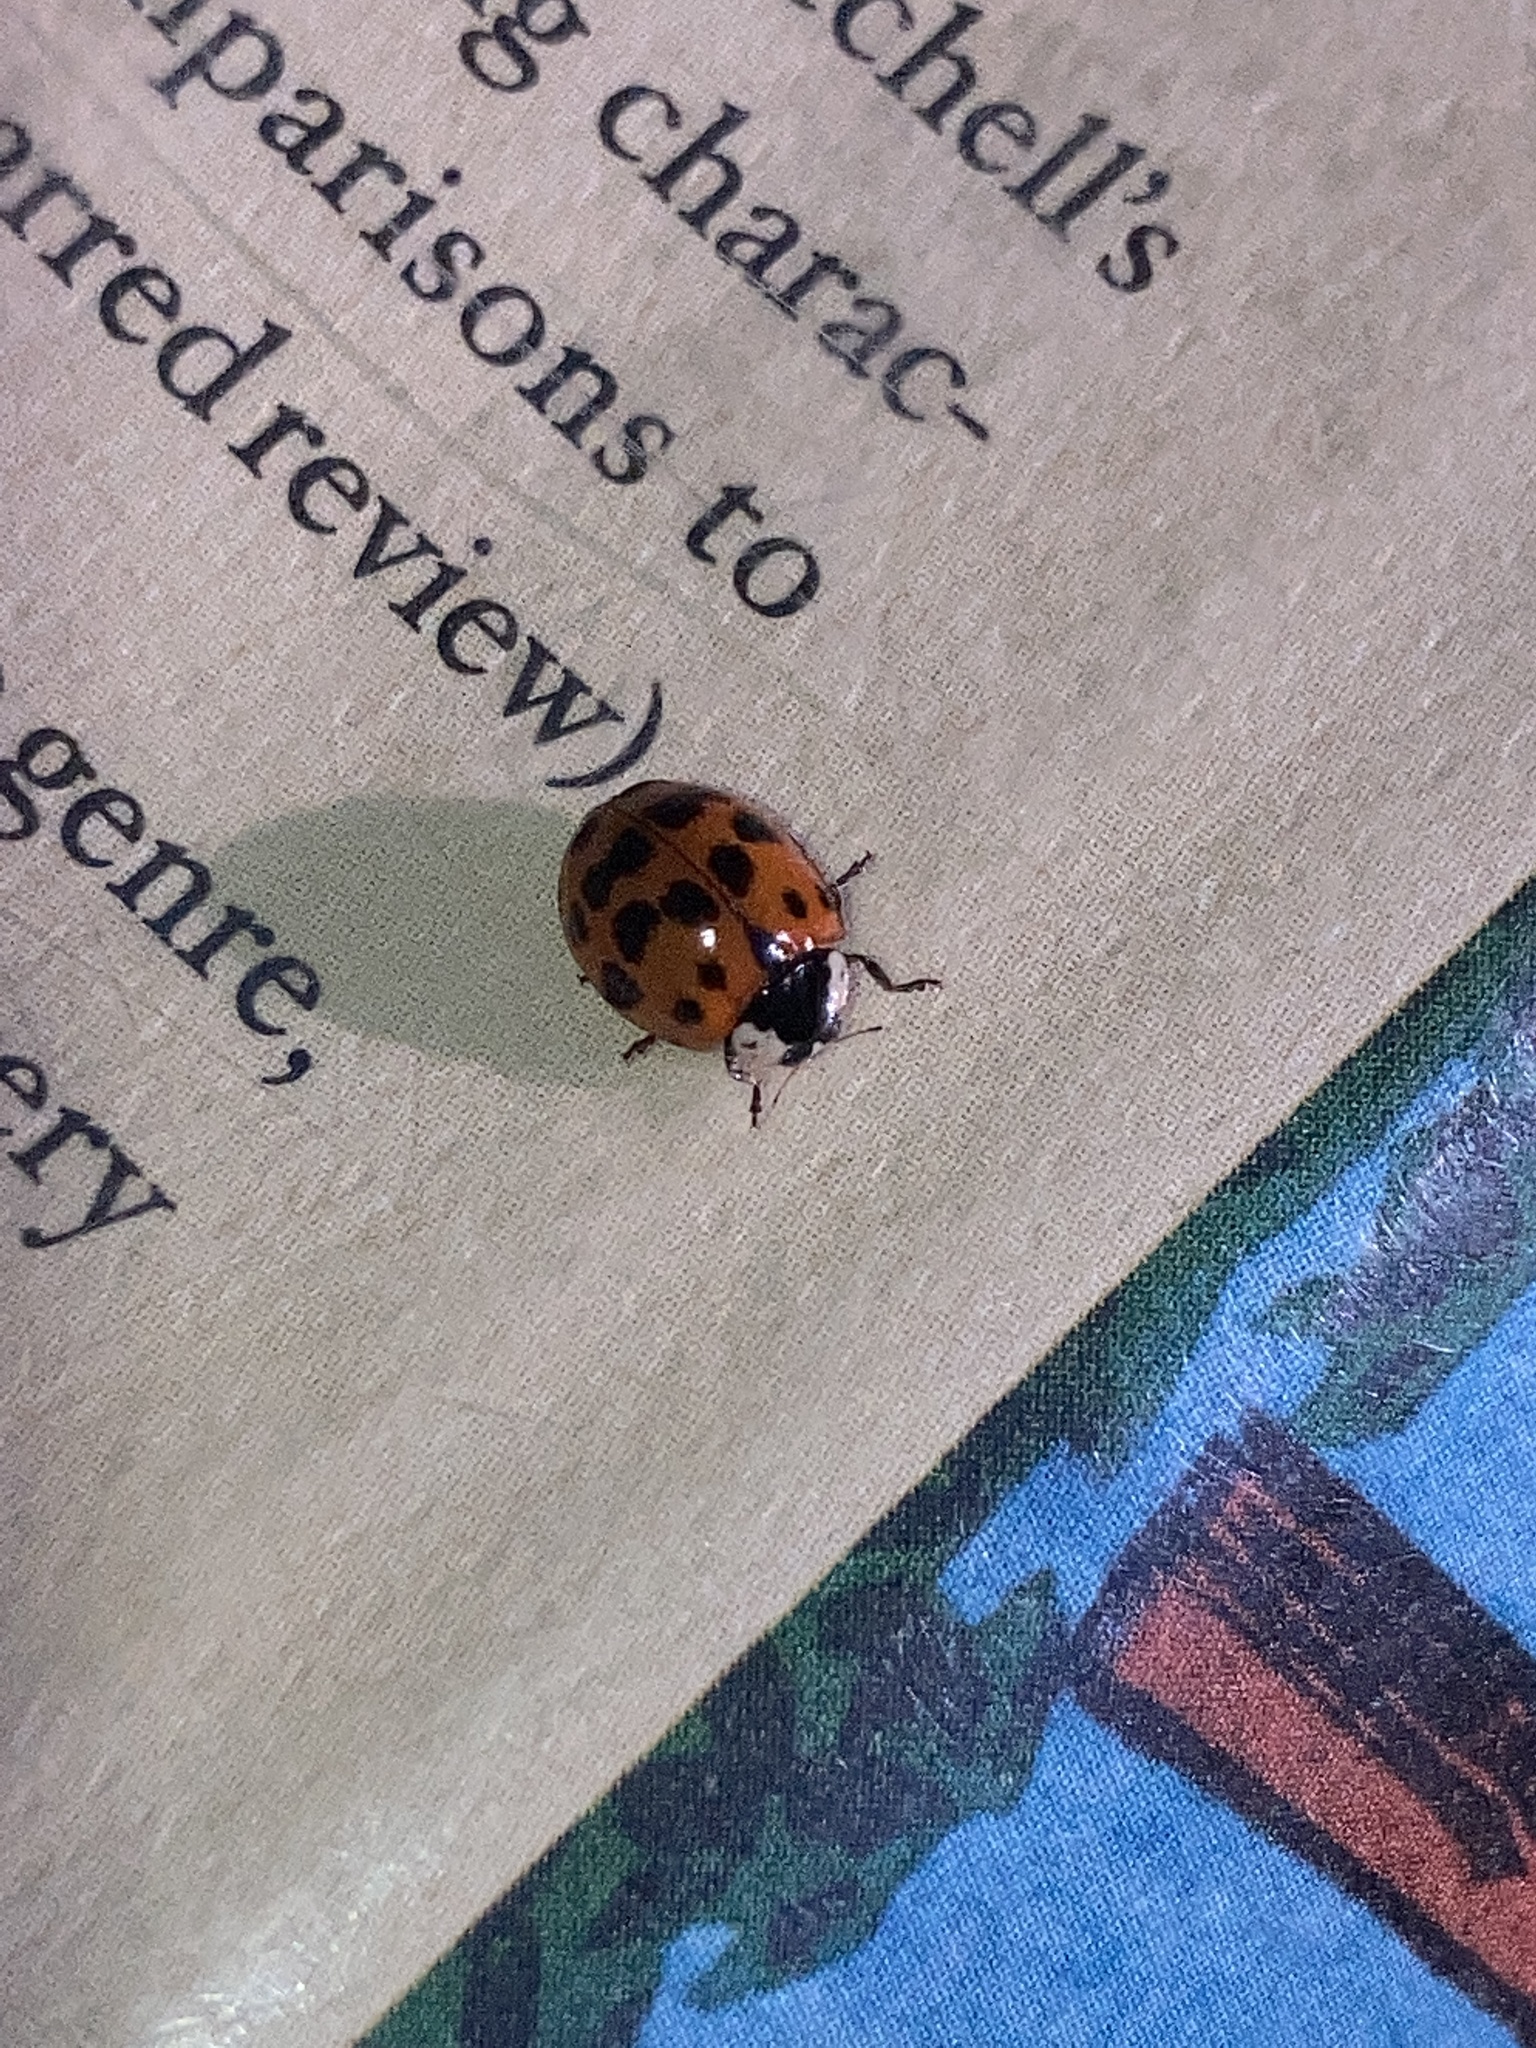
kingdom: Animalia
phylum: Arthropoda
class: Insecta
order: Coleoptera
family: Coccinellidae
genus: Harmonia
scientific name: Harmonia axyridis
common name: Harlequin ladybird
